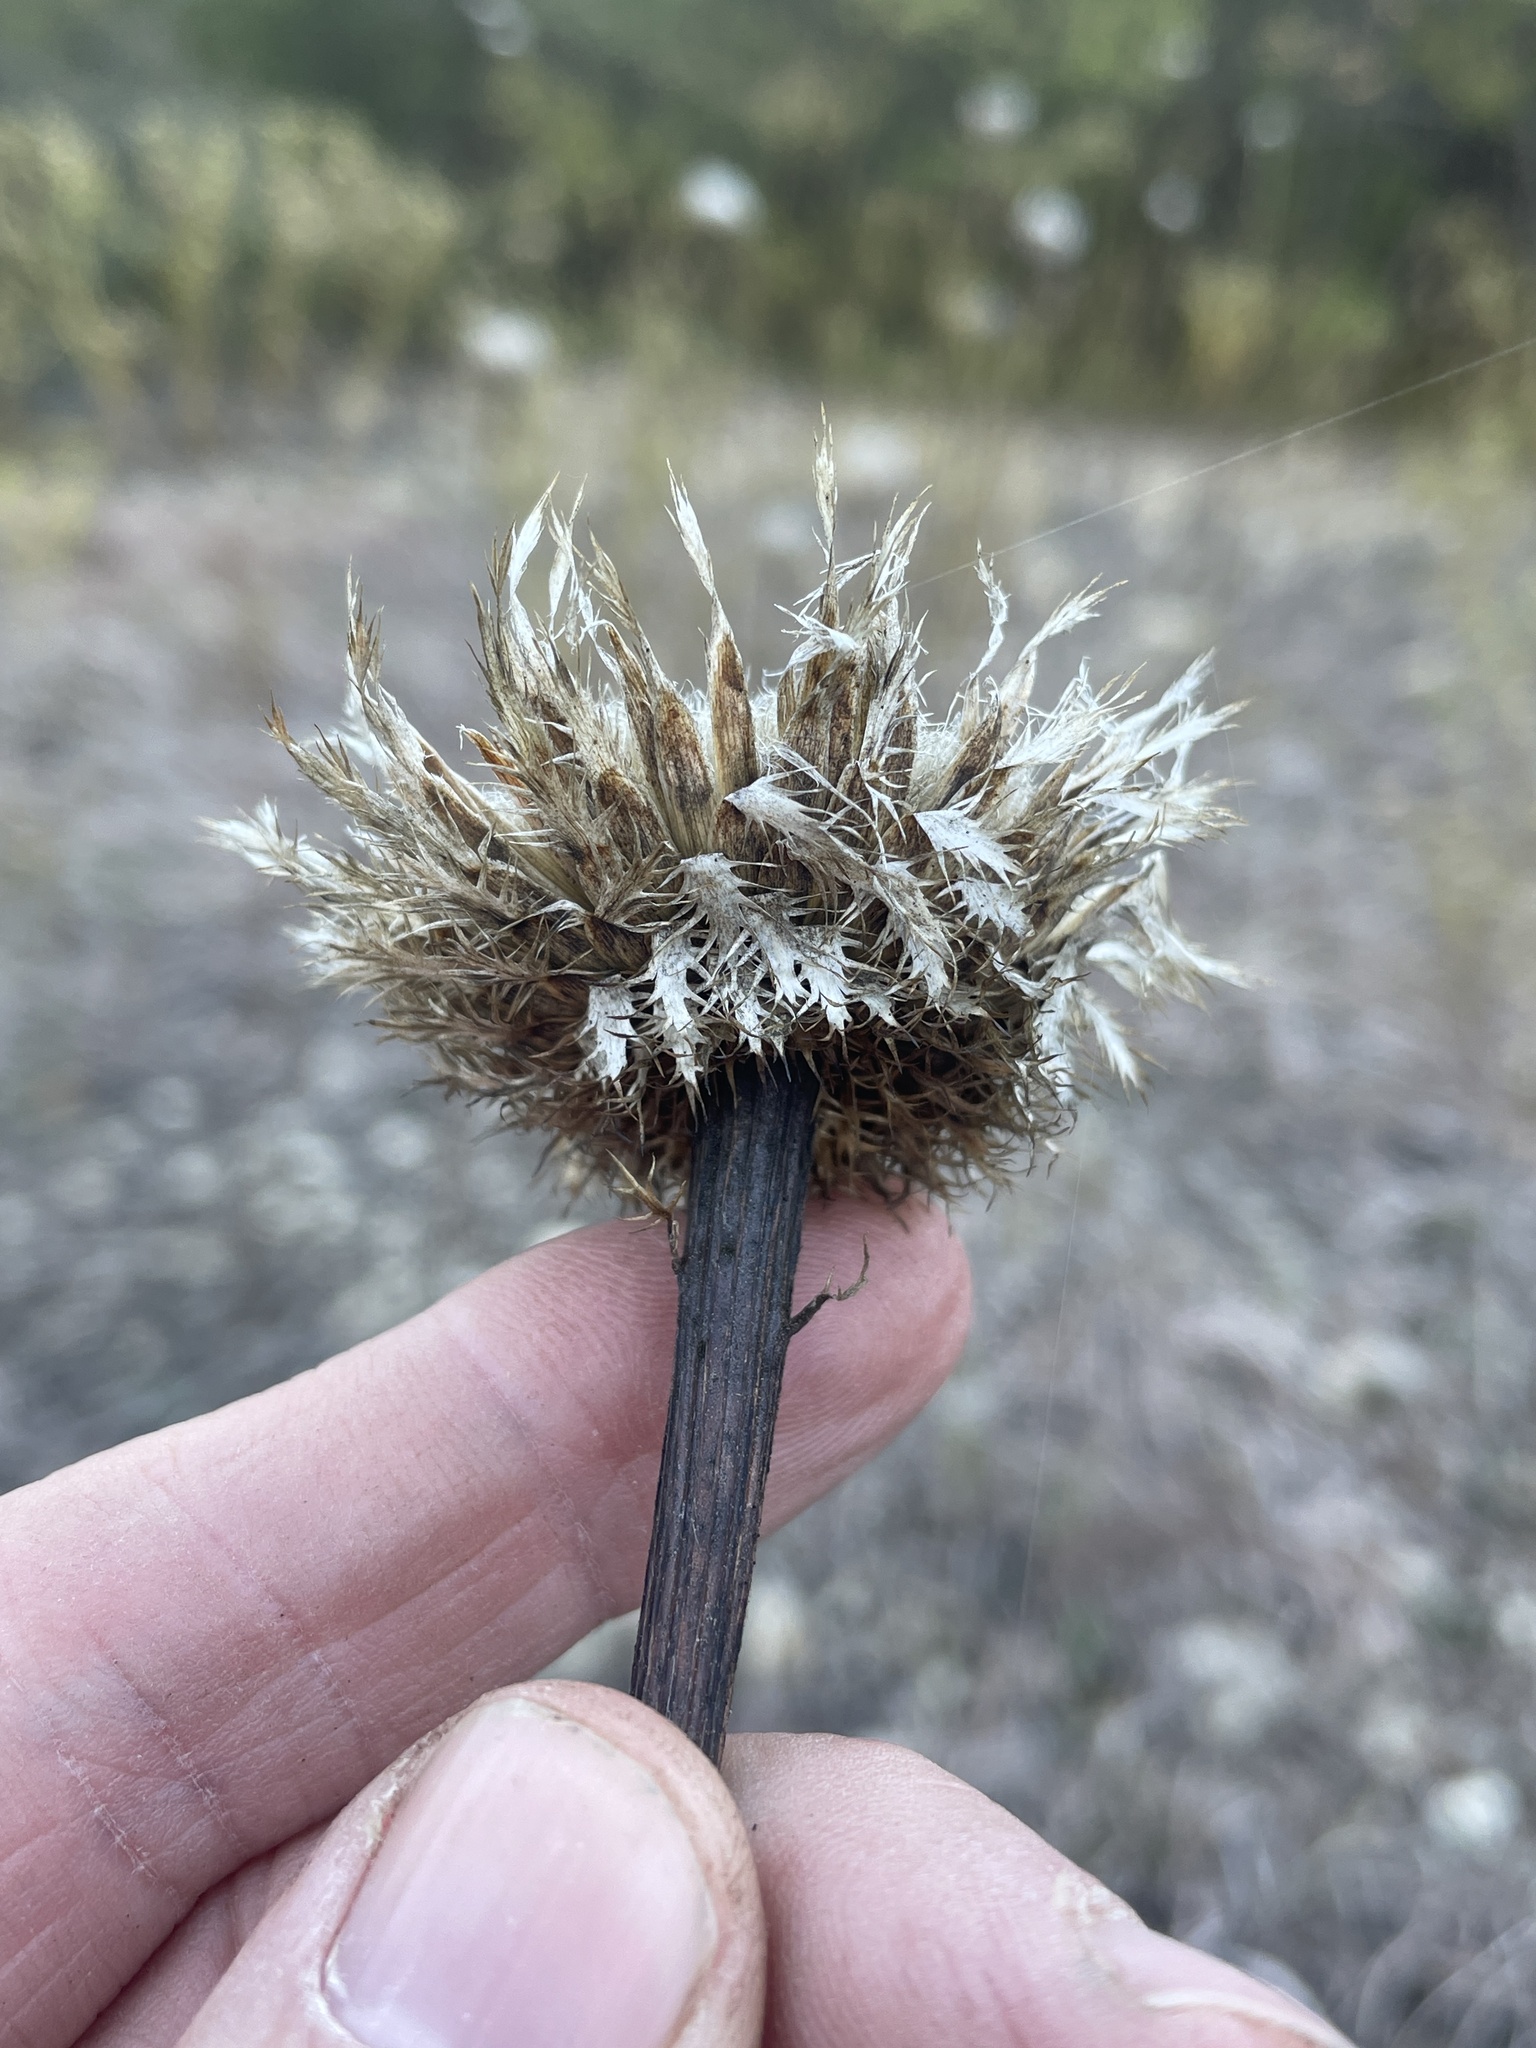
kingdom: Plantae
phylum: Tracheophyta
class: Magnoliopsida
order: Asterales
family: Asteraceae
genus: Plectocephalus
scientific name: Plectocephalus americanus
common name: American basket-flower
